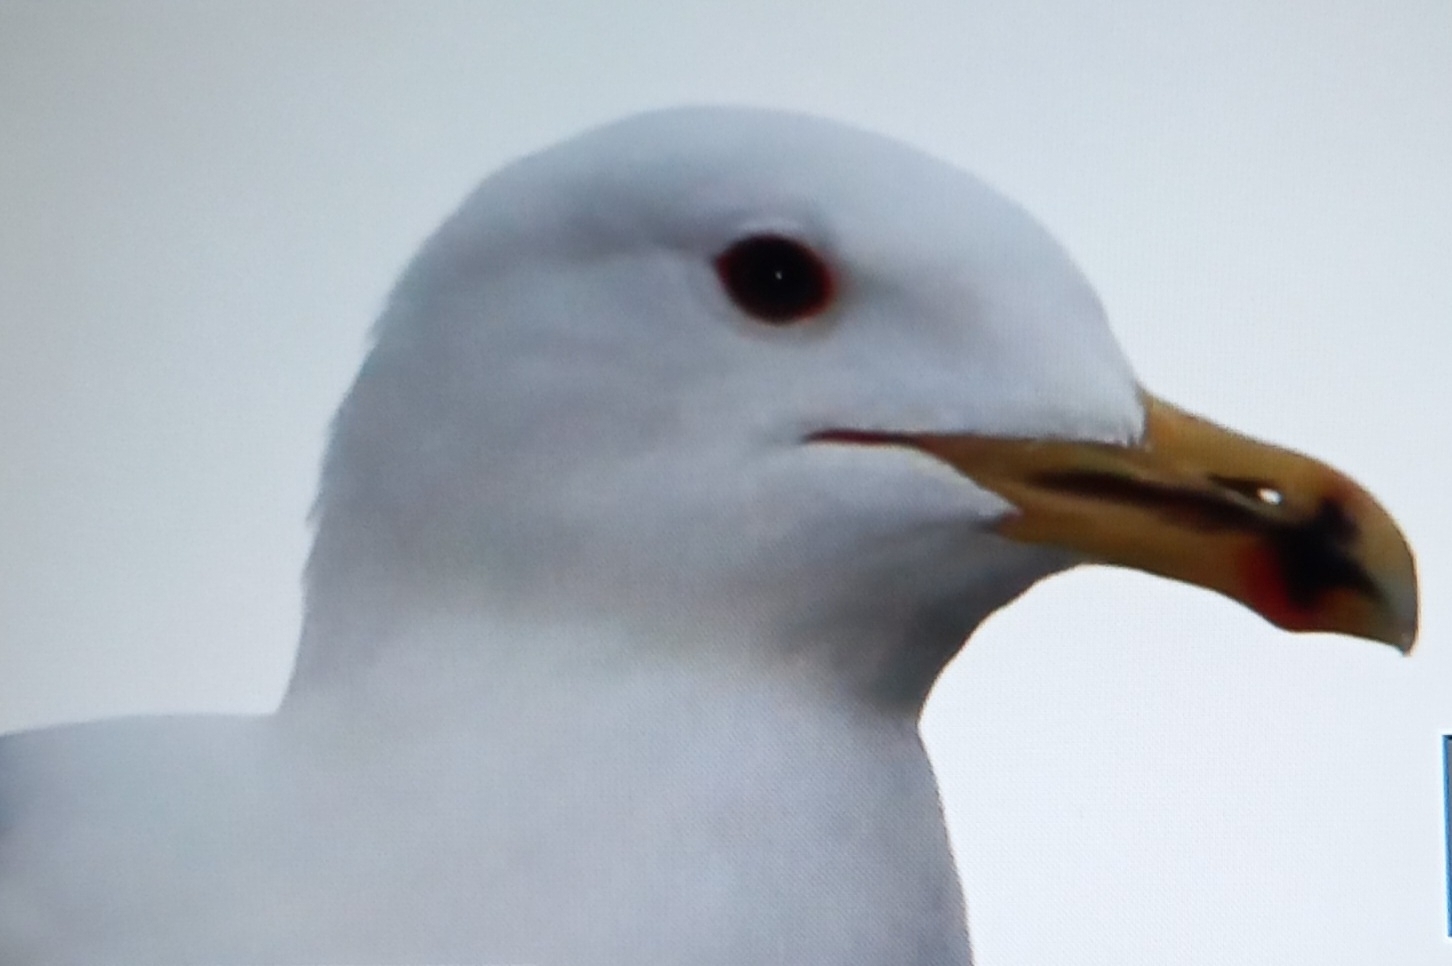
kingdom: Animalia
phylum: Chordata
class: Aves
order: Charadriiformes
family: Laridae
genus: Larus
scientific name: Larus michahellis
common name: Yellow-legged gull
